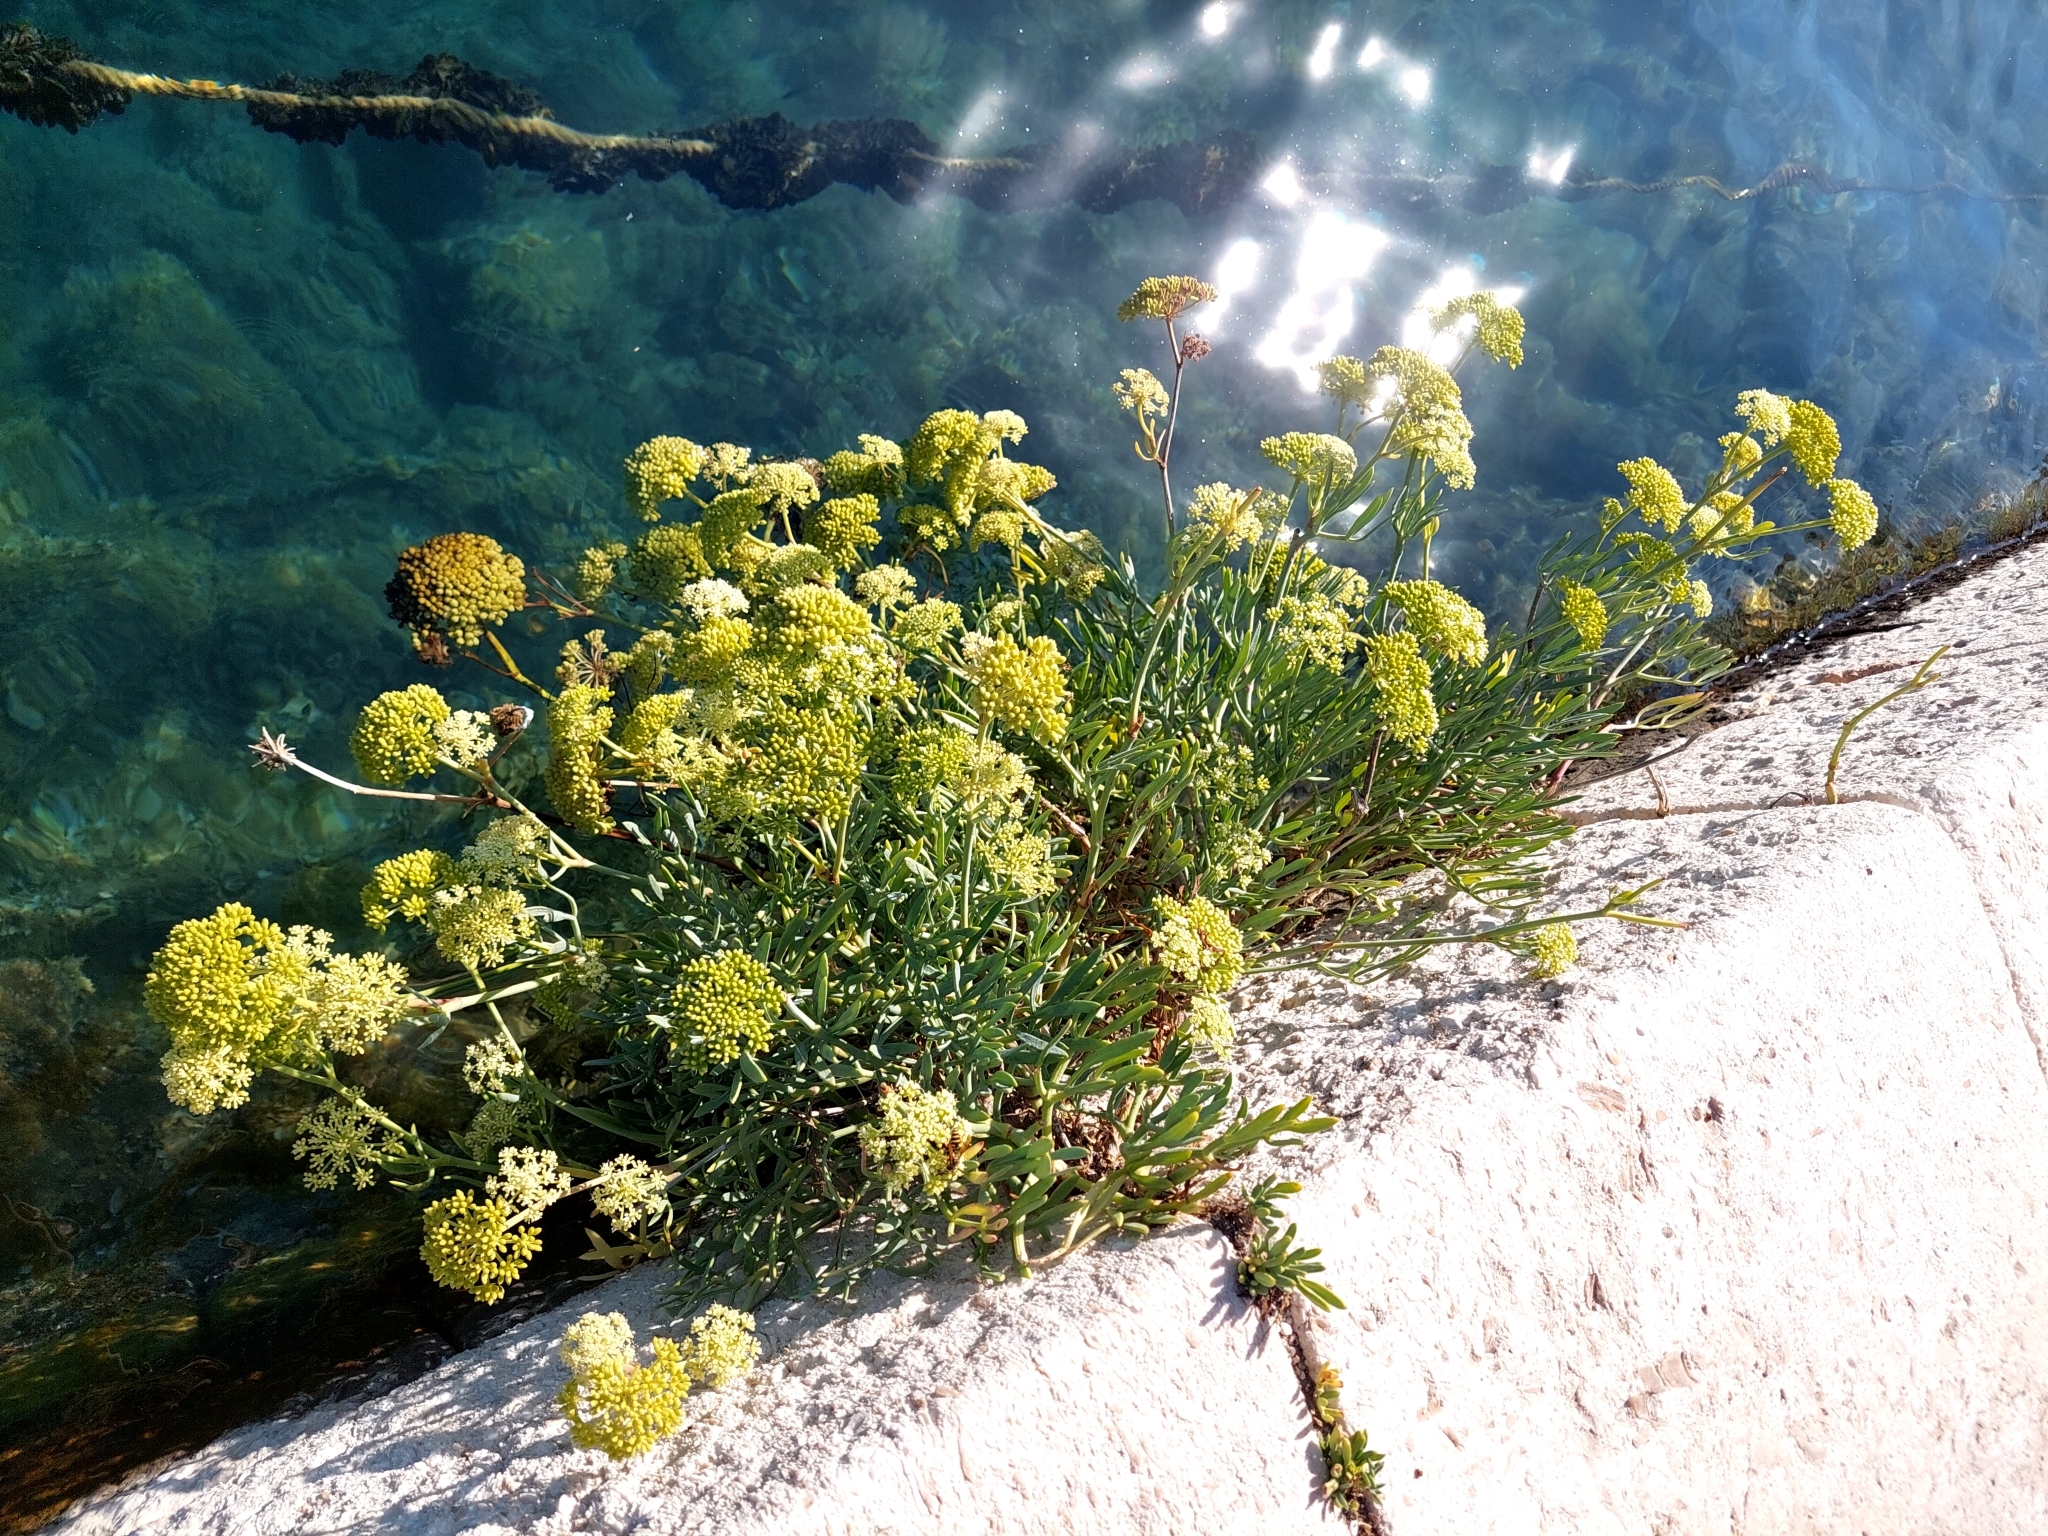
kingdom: Plantae
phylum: Tracheophyta
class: Magnoliopsida
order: Apiales
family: Apiaceae
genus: Crithmum
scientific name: Crithmum maritimum
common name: Rock samphire
